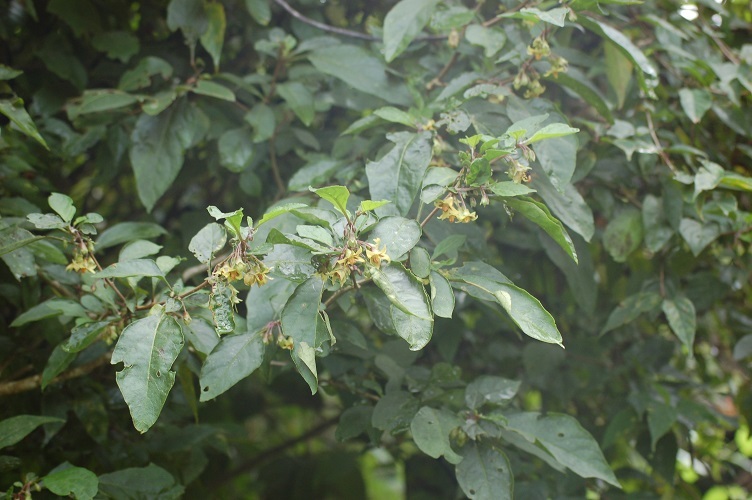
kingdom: Plantae
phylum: Tracheophyta
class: Magnoliopsida
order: Solanales
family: Solanaceae
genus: Physalis
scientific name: Physalis campechiana
